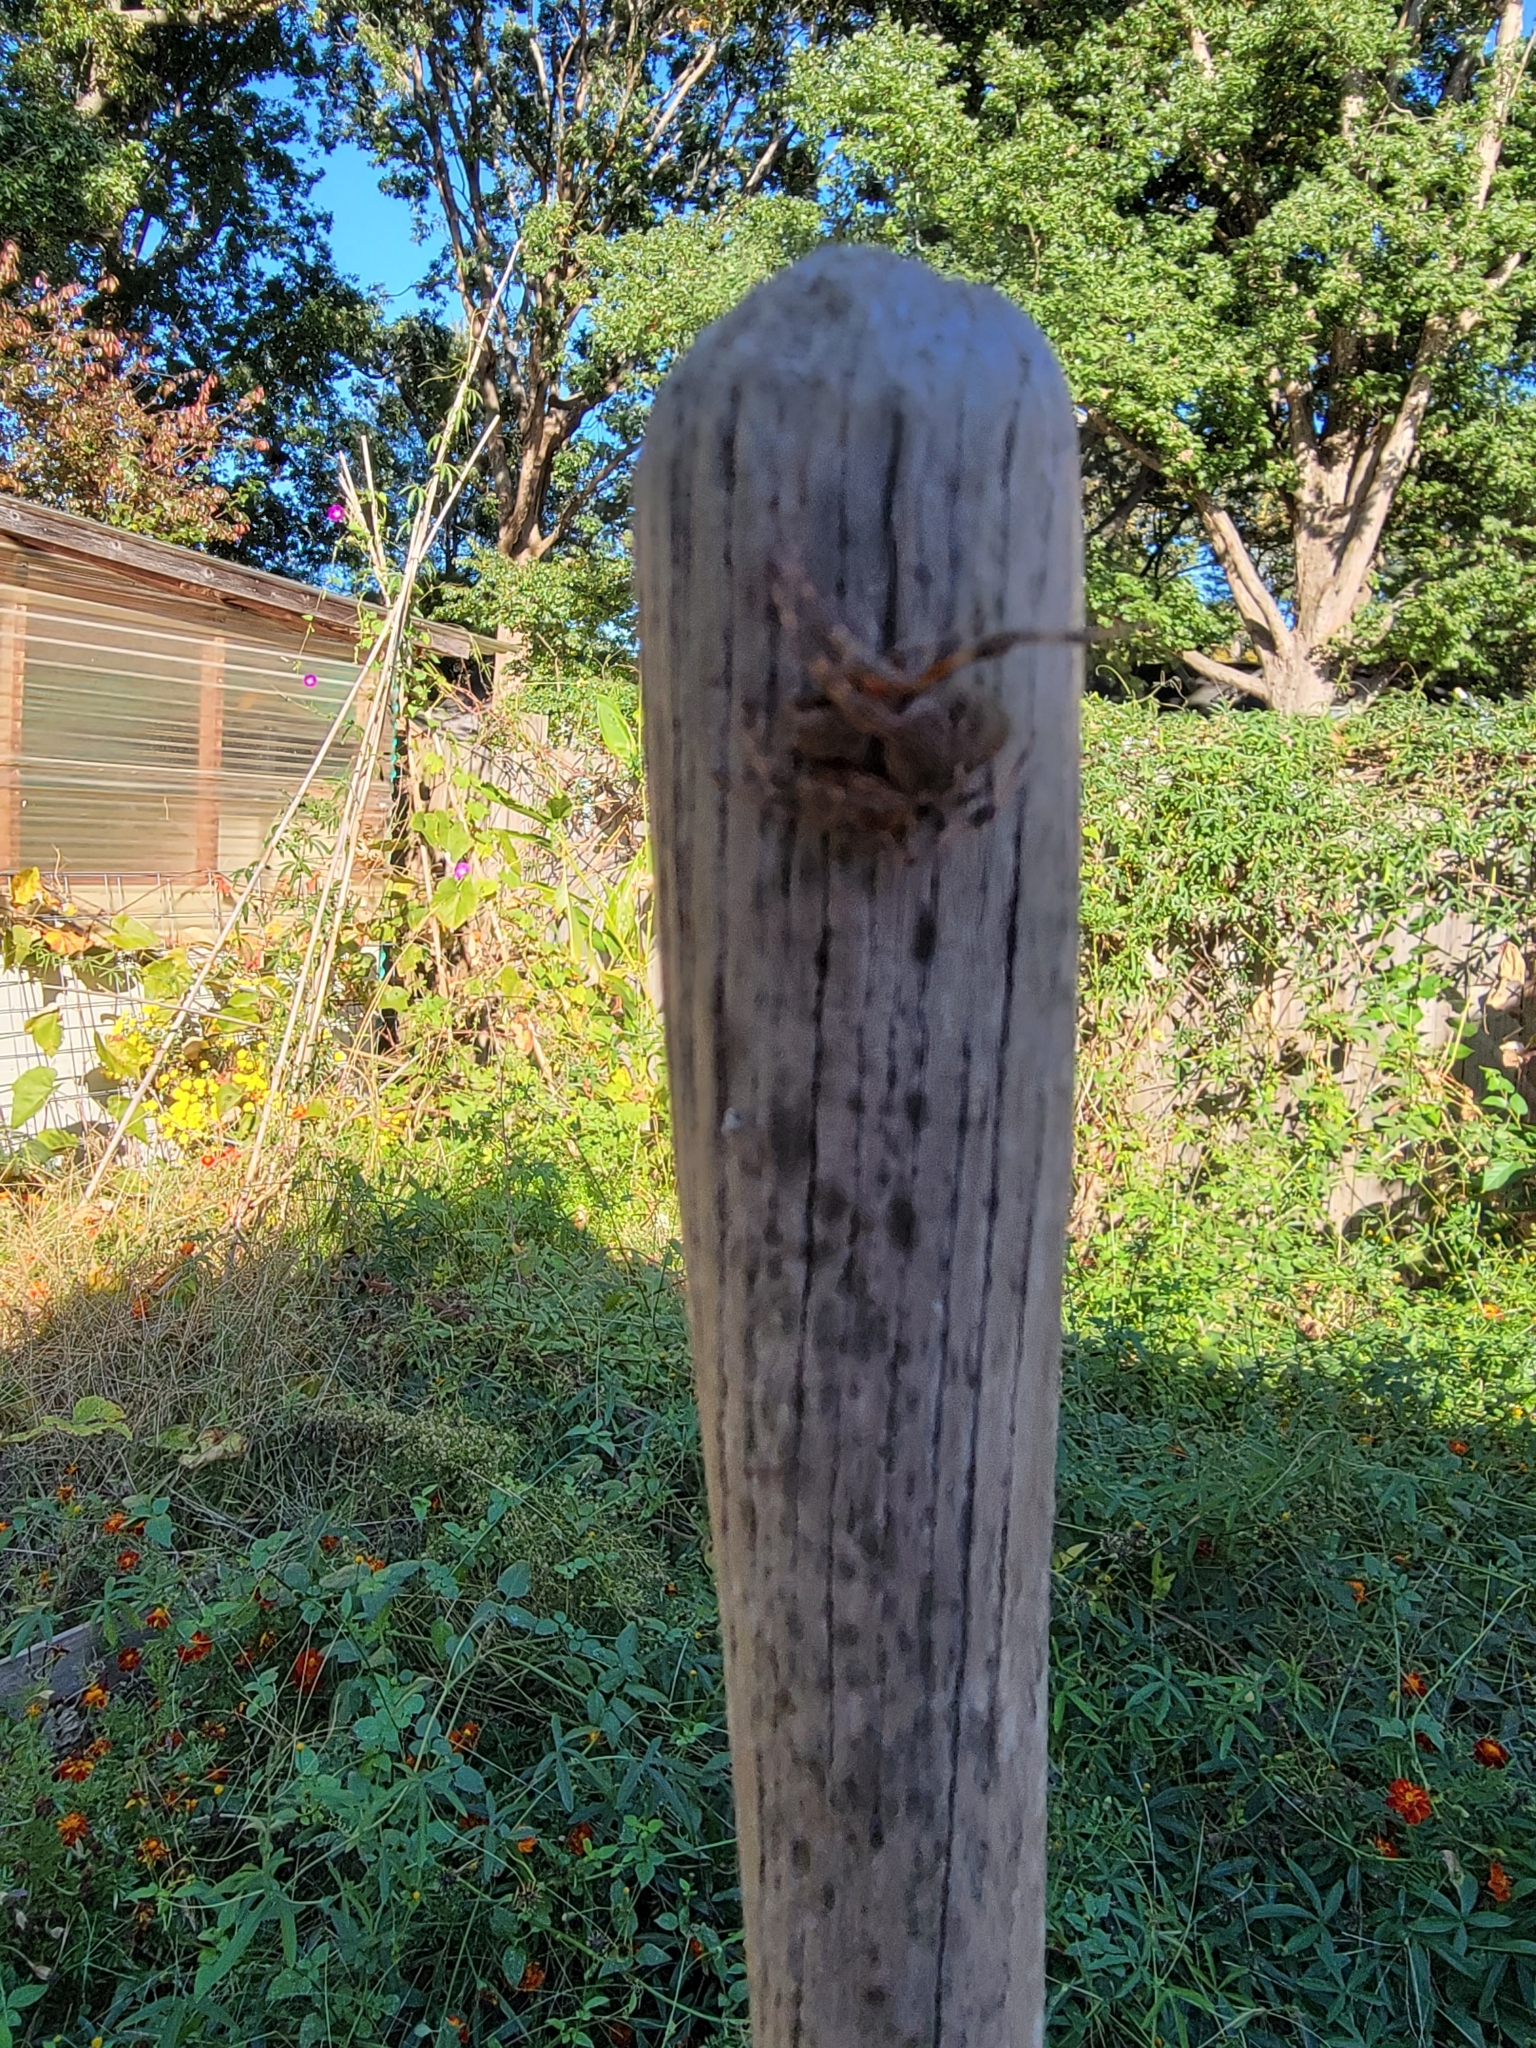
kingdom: Animalia
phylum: Arthropoda
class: Arachnida
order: Araneae
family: Araneidae
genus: Neoscona
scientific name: Neoscona crucifera
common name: Spotted orbweaver
